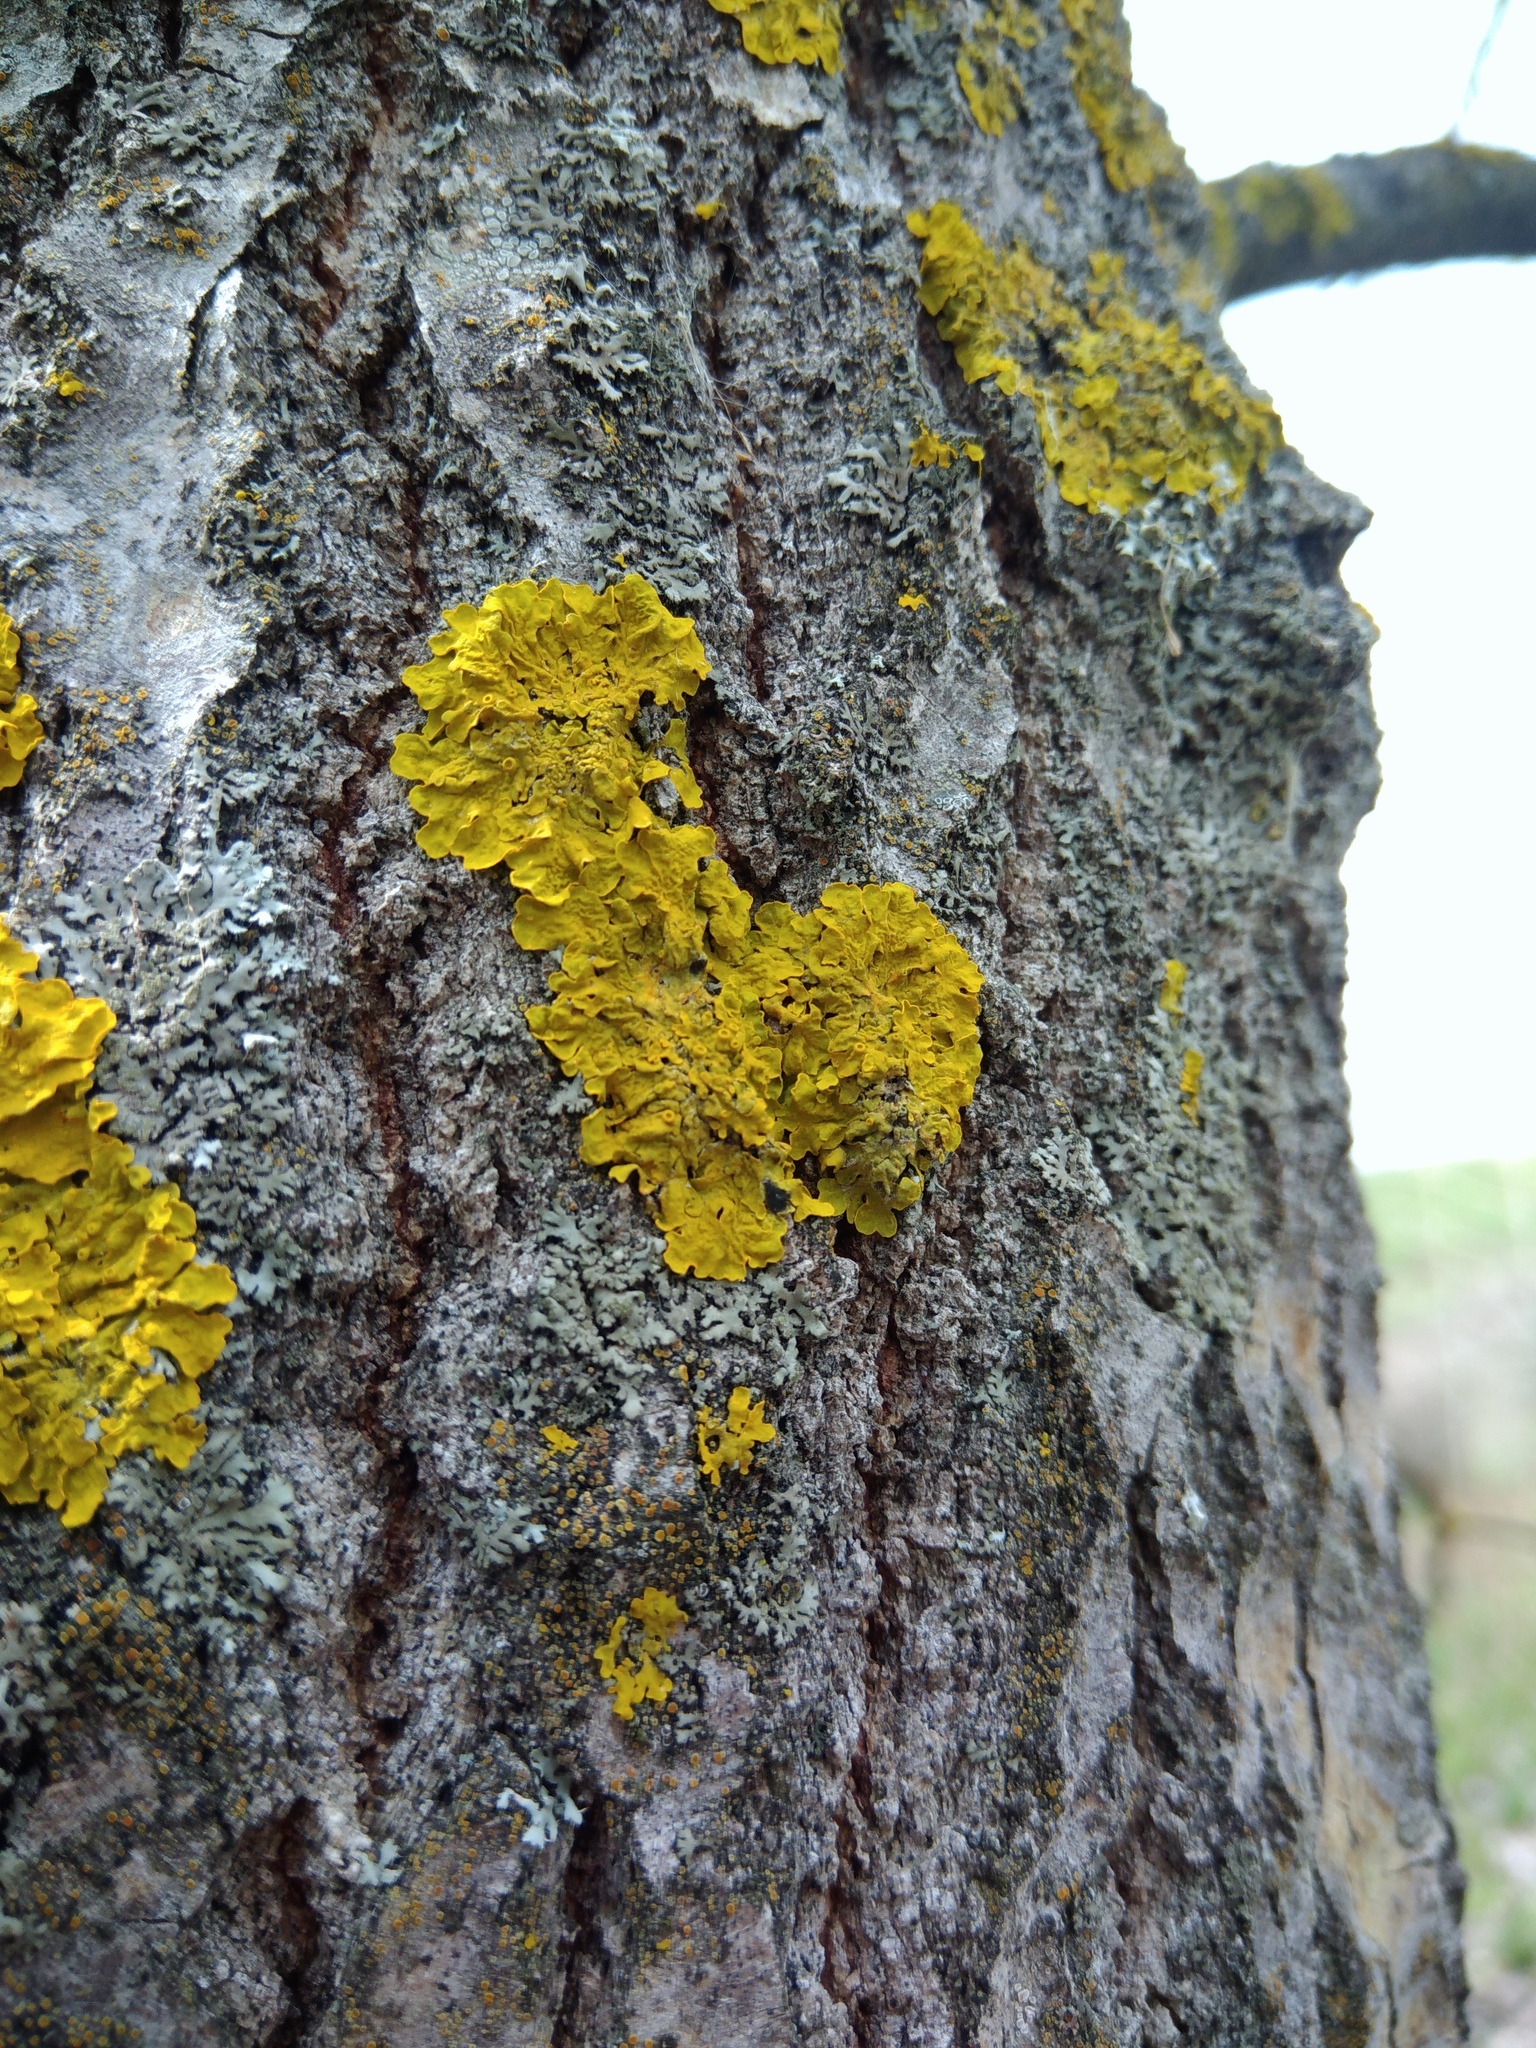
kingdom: Fungi
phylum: Ascomycota
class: Lecanoromycetes
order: Teloschistales
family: Teloschistaceae
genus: Xanthoria
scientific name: Xanthoria parietina
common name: Common orange lichen
